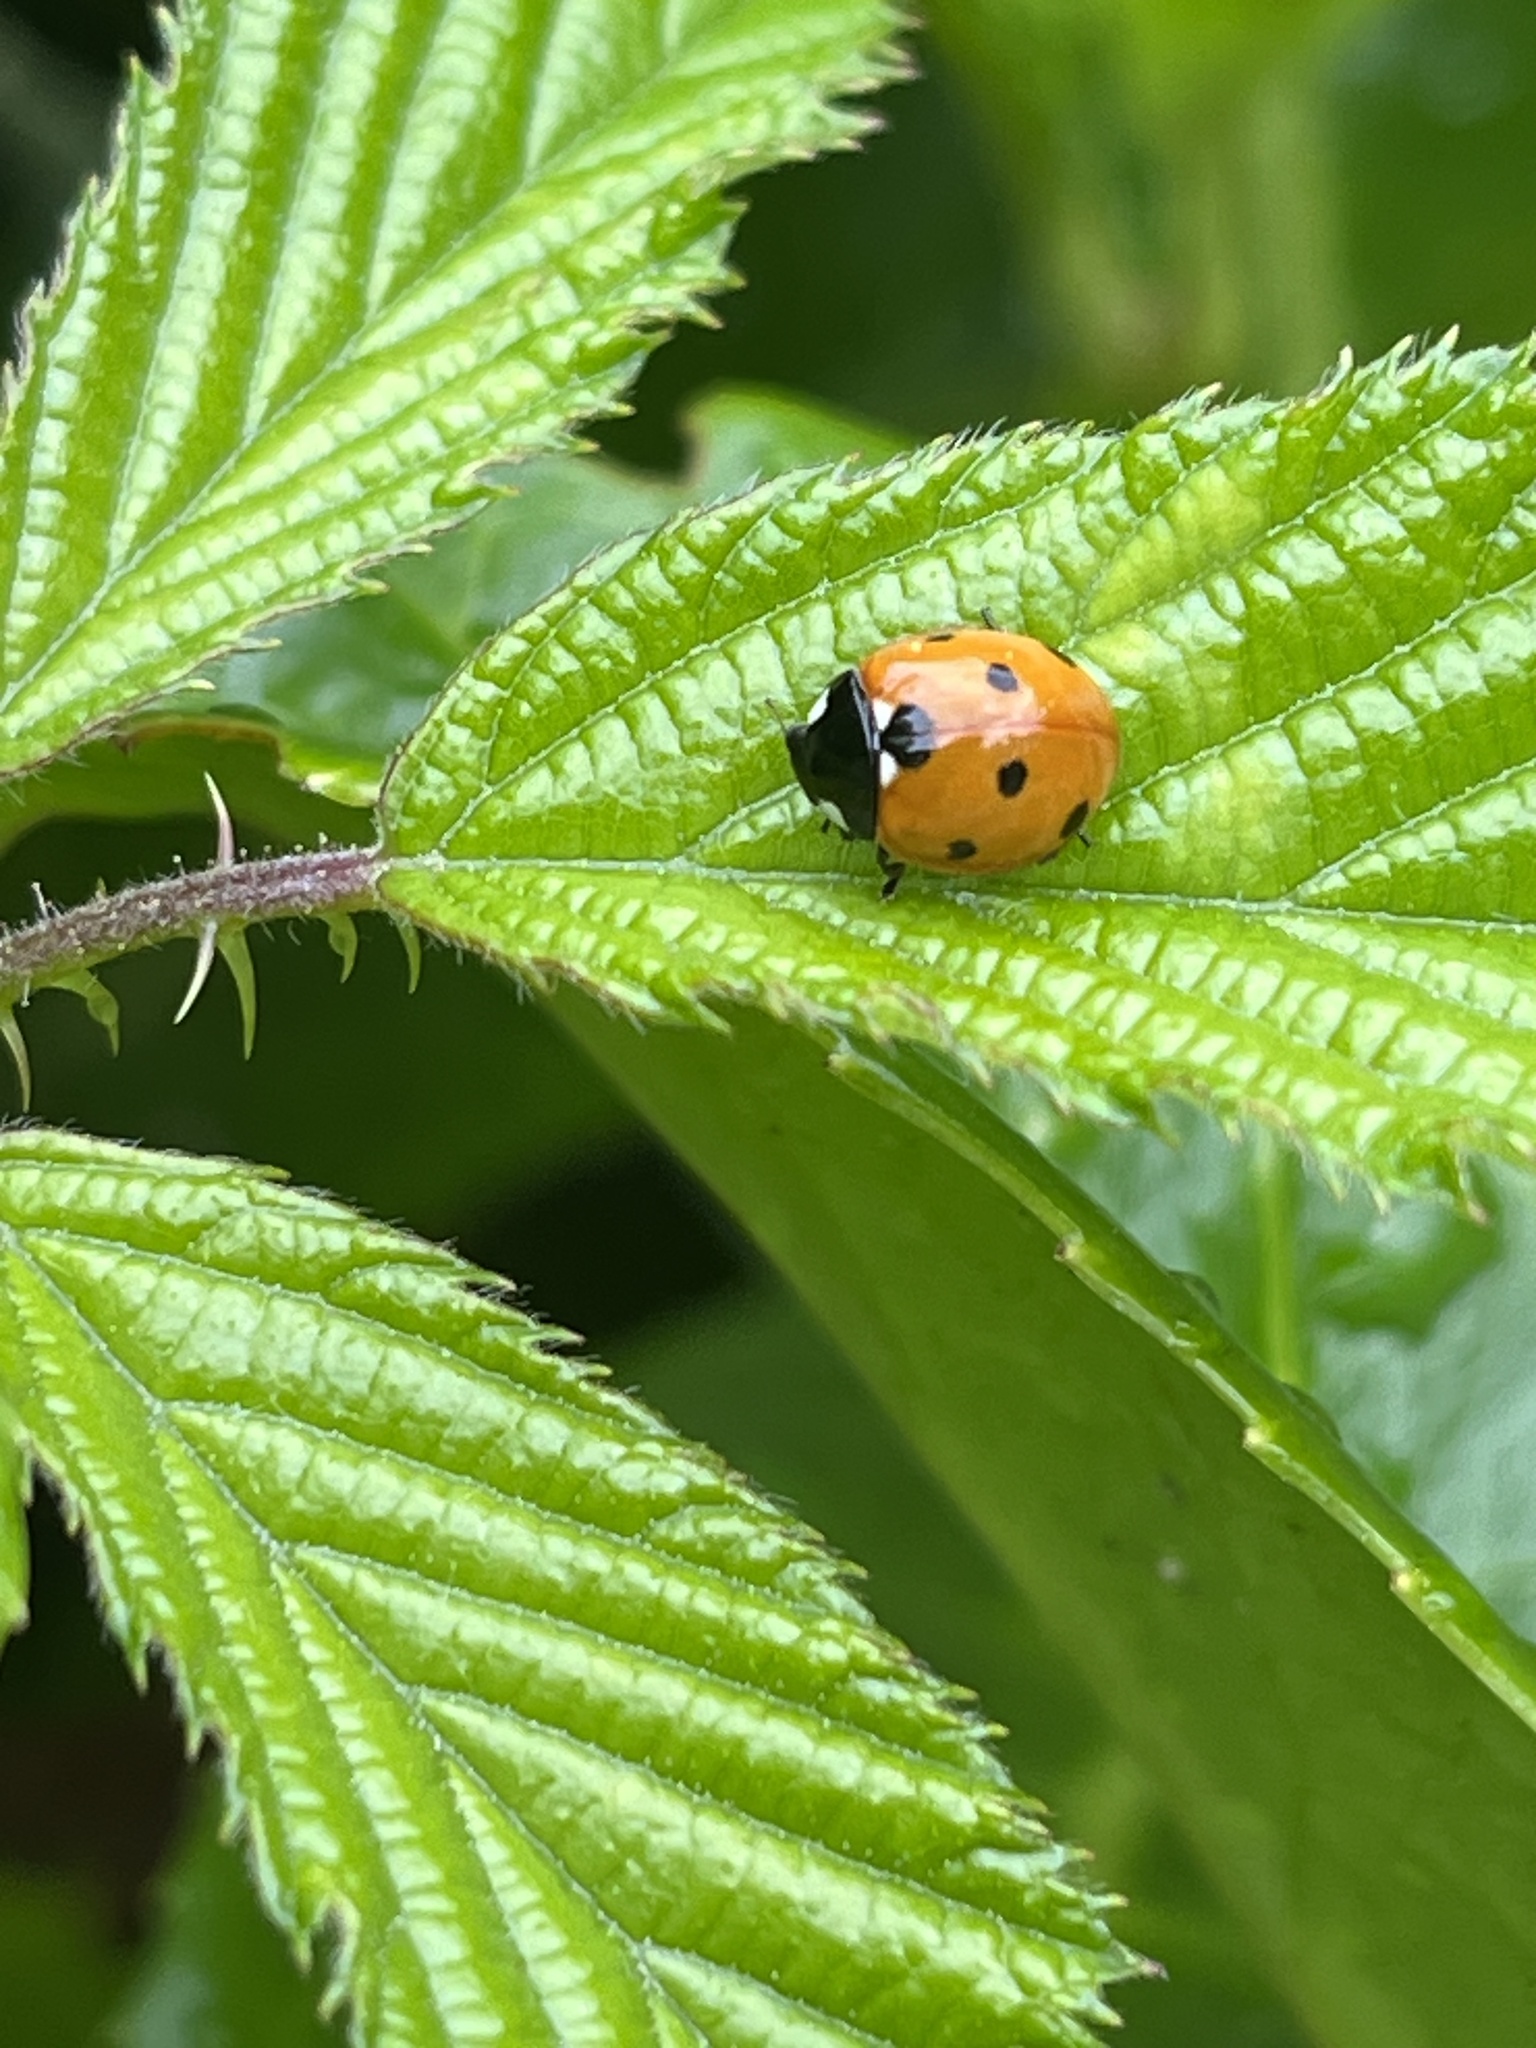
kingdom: Animalia
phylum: Arthropoda
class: Insecta
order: Coleoptera
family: Coccinellidae
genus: Coccinella
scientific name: Coccinella septempunctata
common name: Sevenspotted lady beetle
